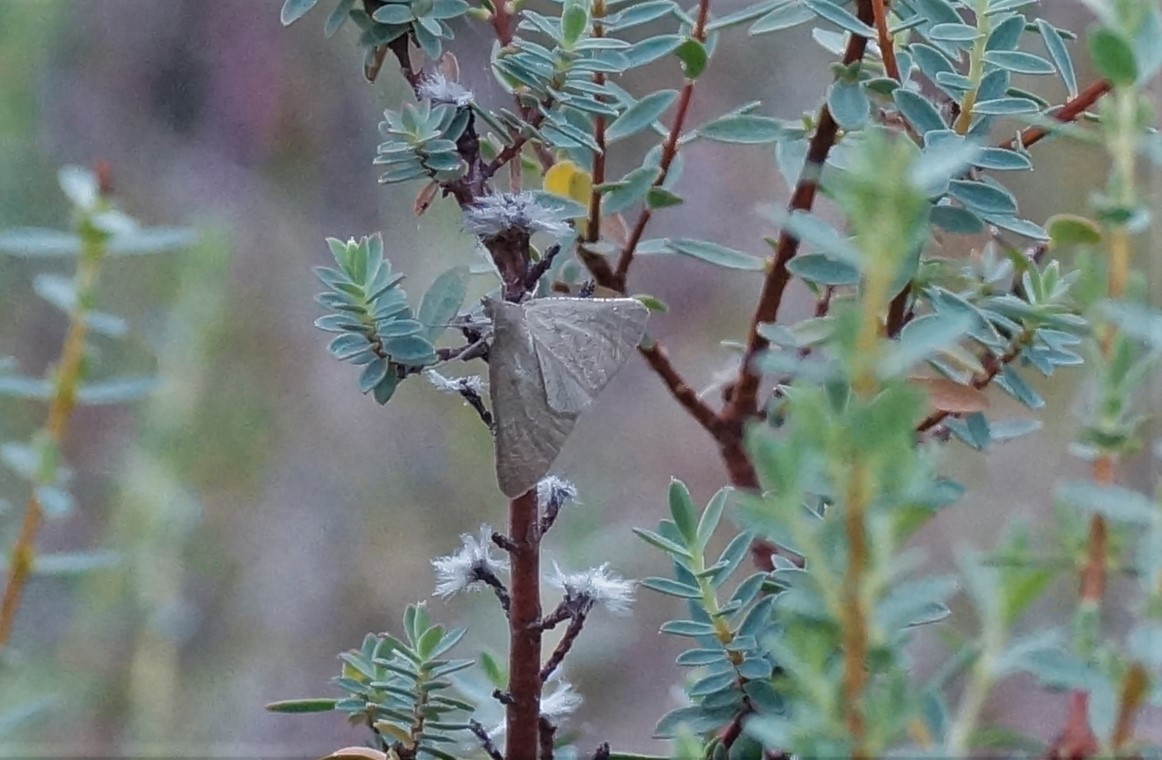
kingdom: Animalia
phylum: Arthropoda
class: Insecta
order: Lepidoptera
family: Geometridae
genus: Neritodes
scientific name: Neritodes verrucata
